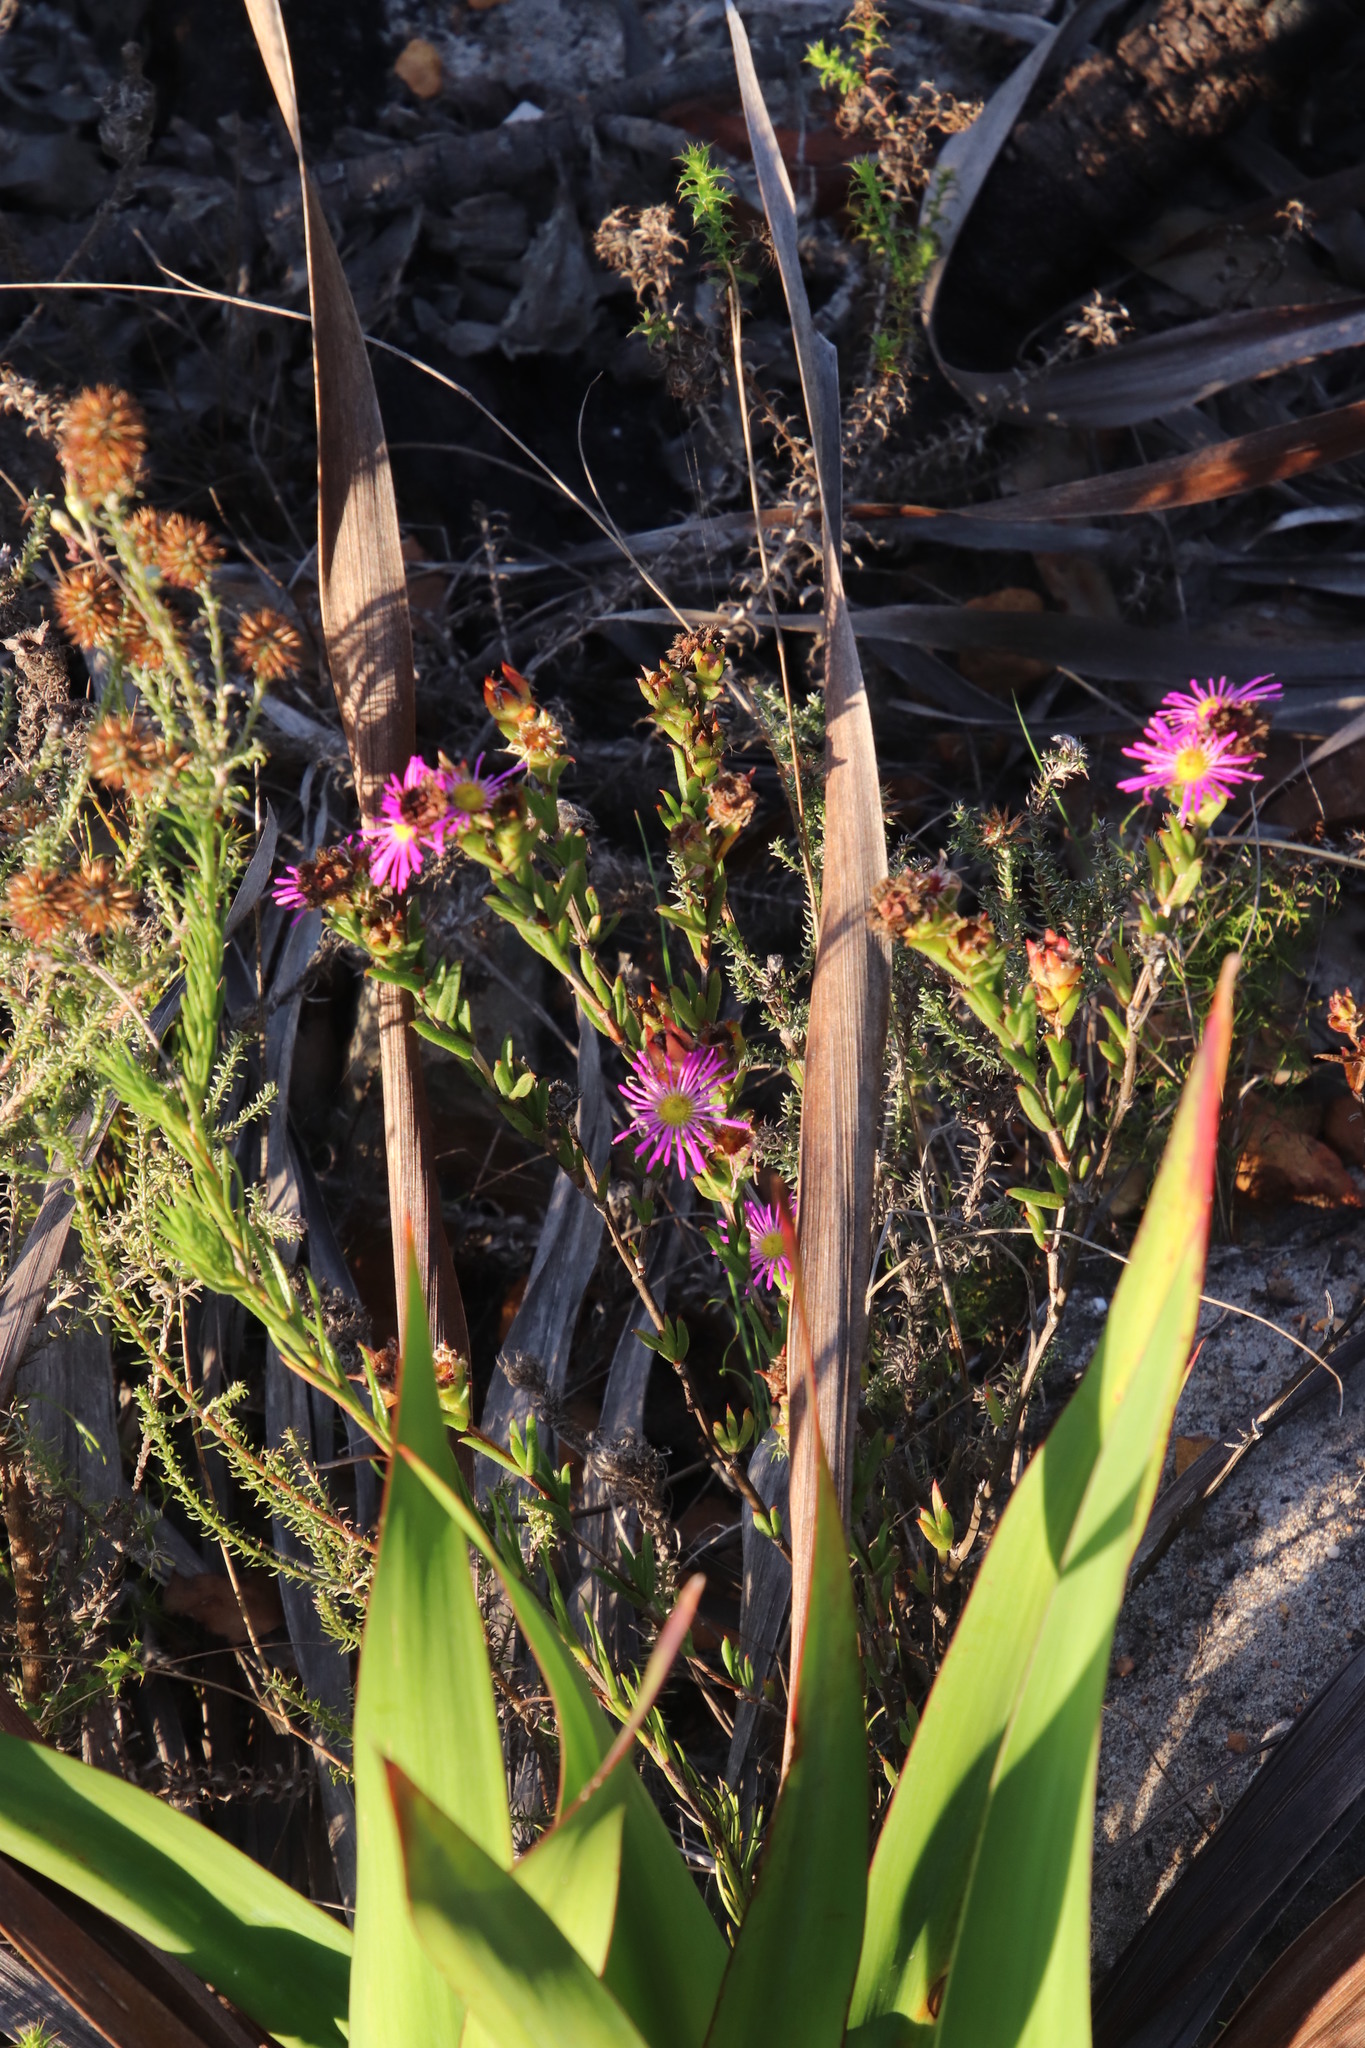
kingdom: Plantae
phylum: Tracheophyta
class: Magnoliopsida
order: Caryophyllales
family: Aizoaceae
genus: Erepsia
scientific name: Erepsia patula
